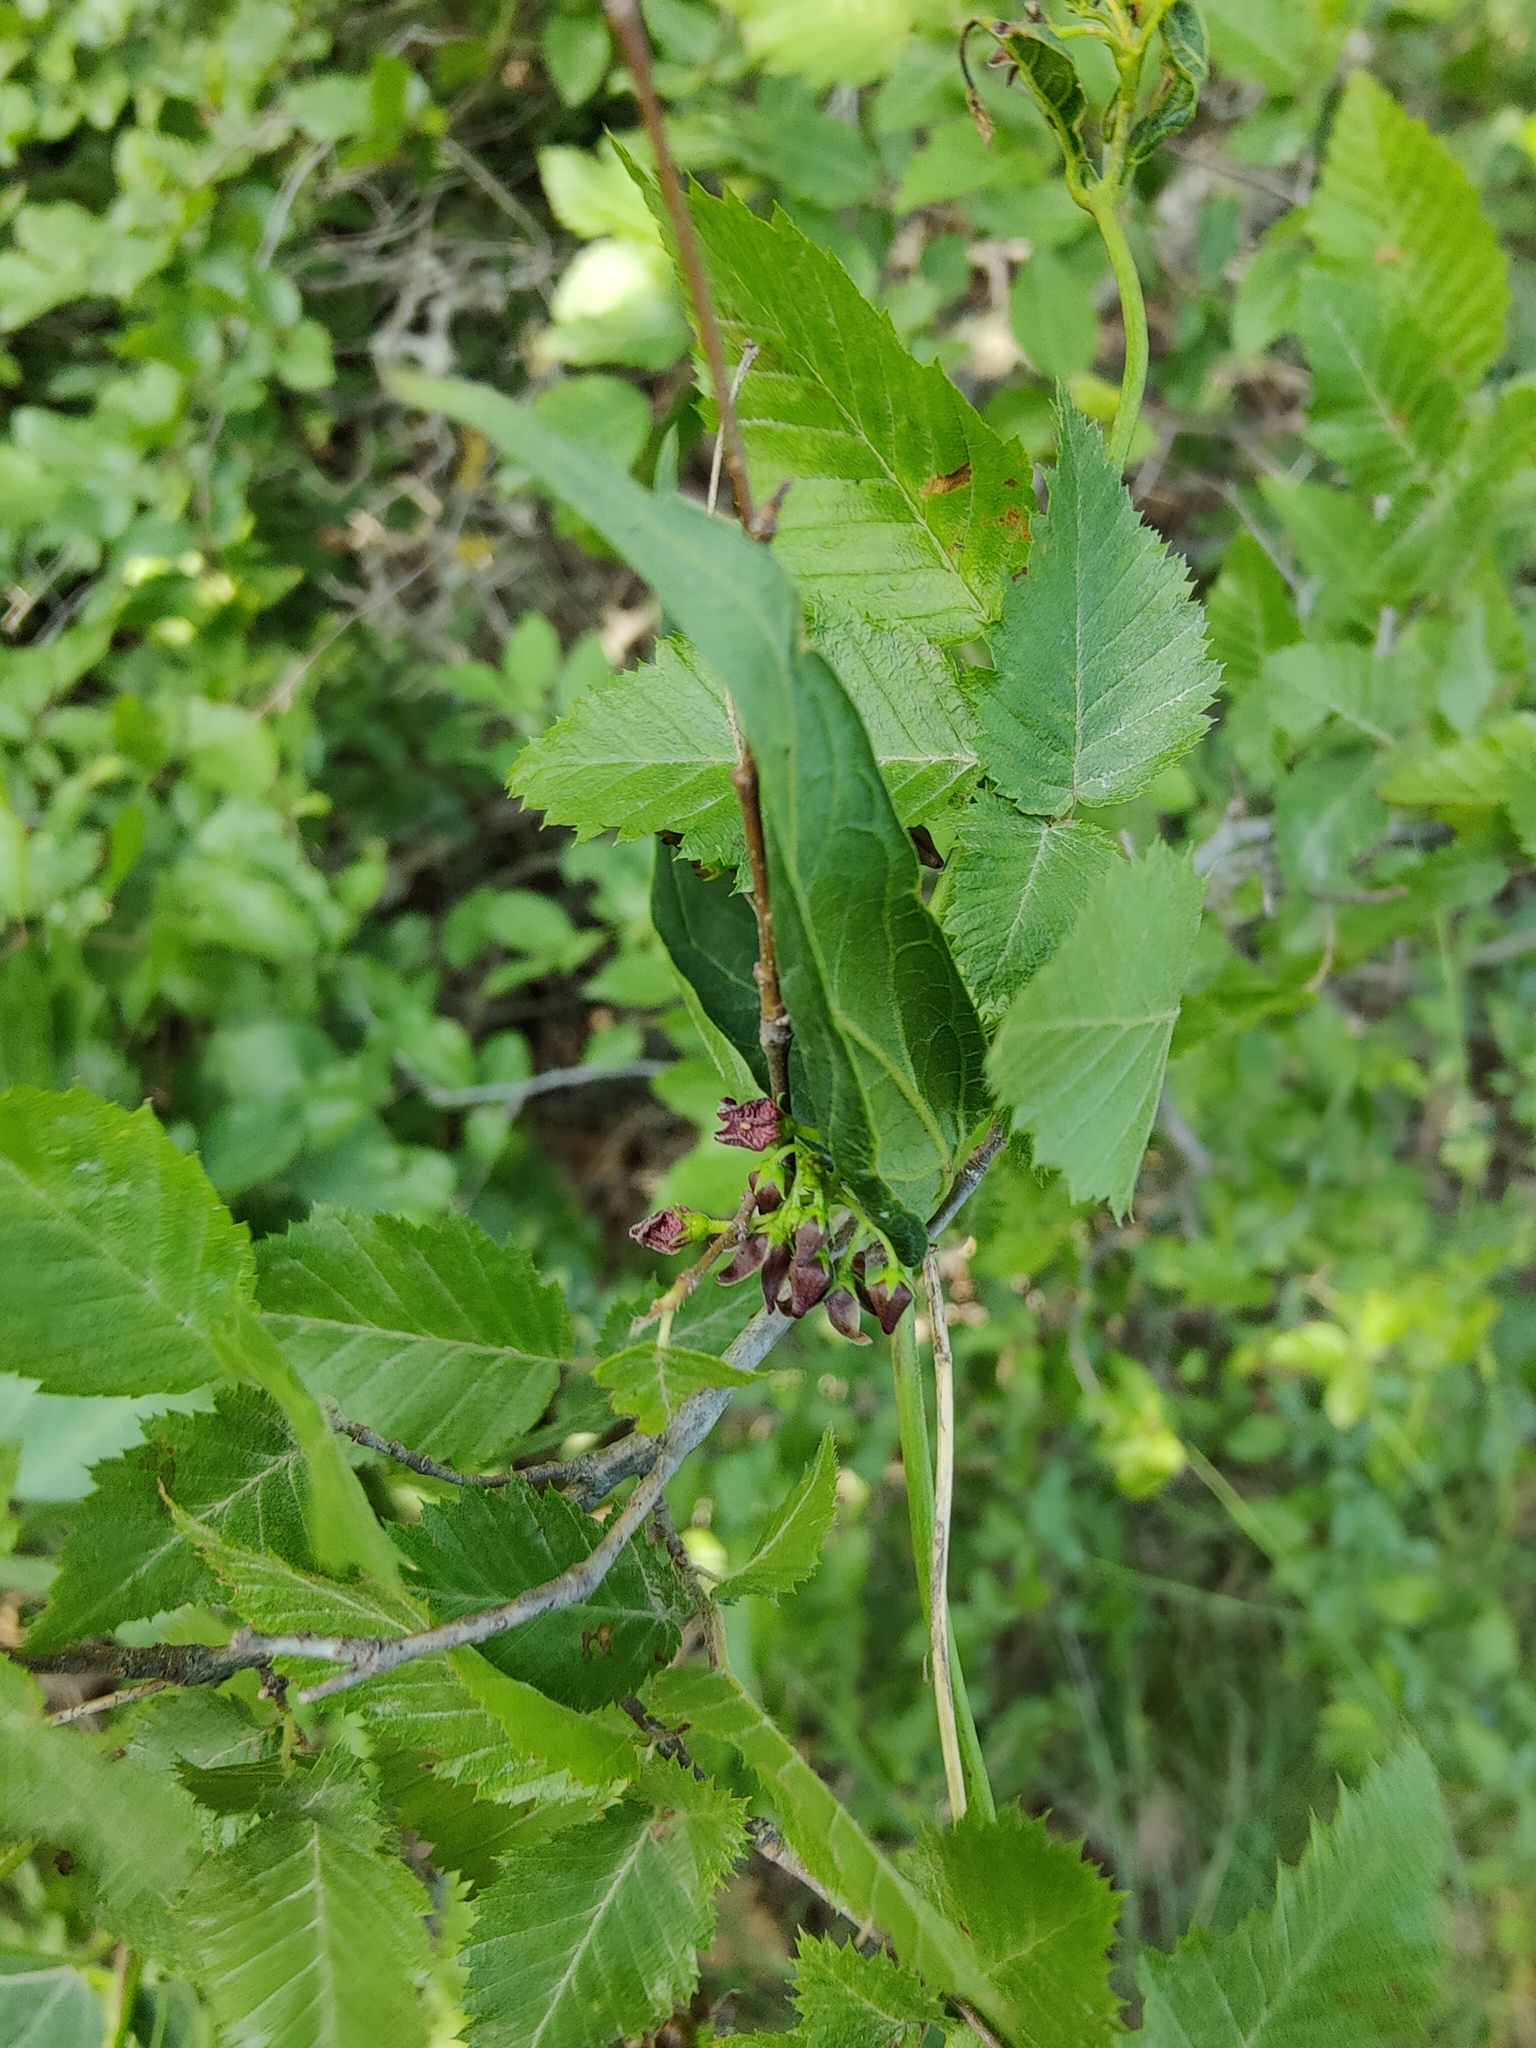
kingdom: Plantae
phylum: Tracheophyta
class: Magnoliopsida
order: Fagales
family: Betulaceae
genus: Carpinus
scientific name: Carpinus orientalis
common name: Eastern hornbeam
